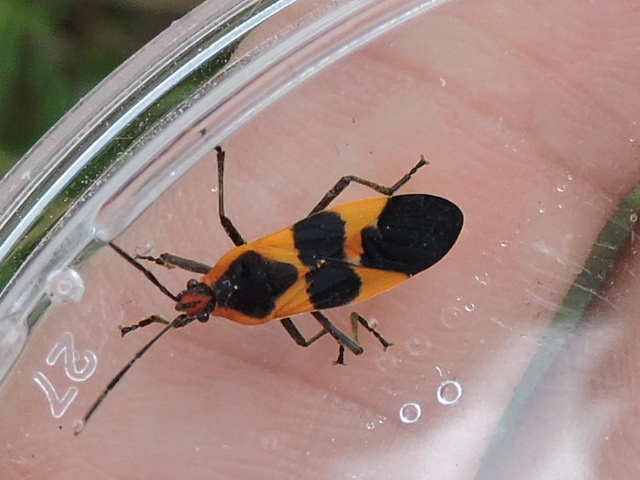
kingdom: Animalia
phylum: Arthropoda
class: Insecta
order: Hemiptera
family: Lygaeidae
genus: Oncopeltus
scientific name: Oncopeltus fasciatus
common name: Large milkweed bug
